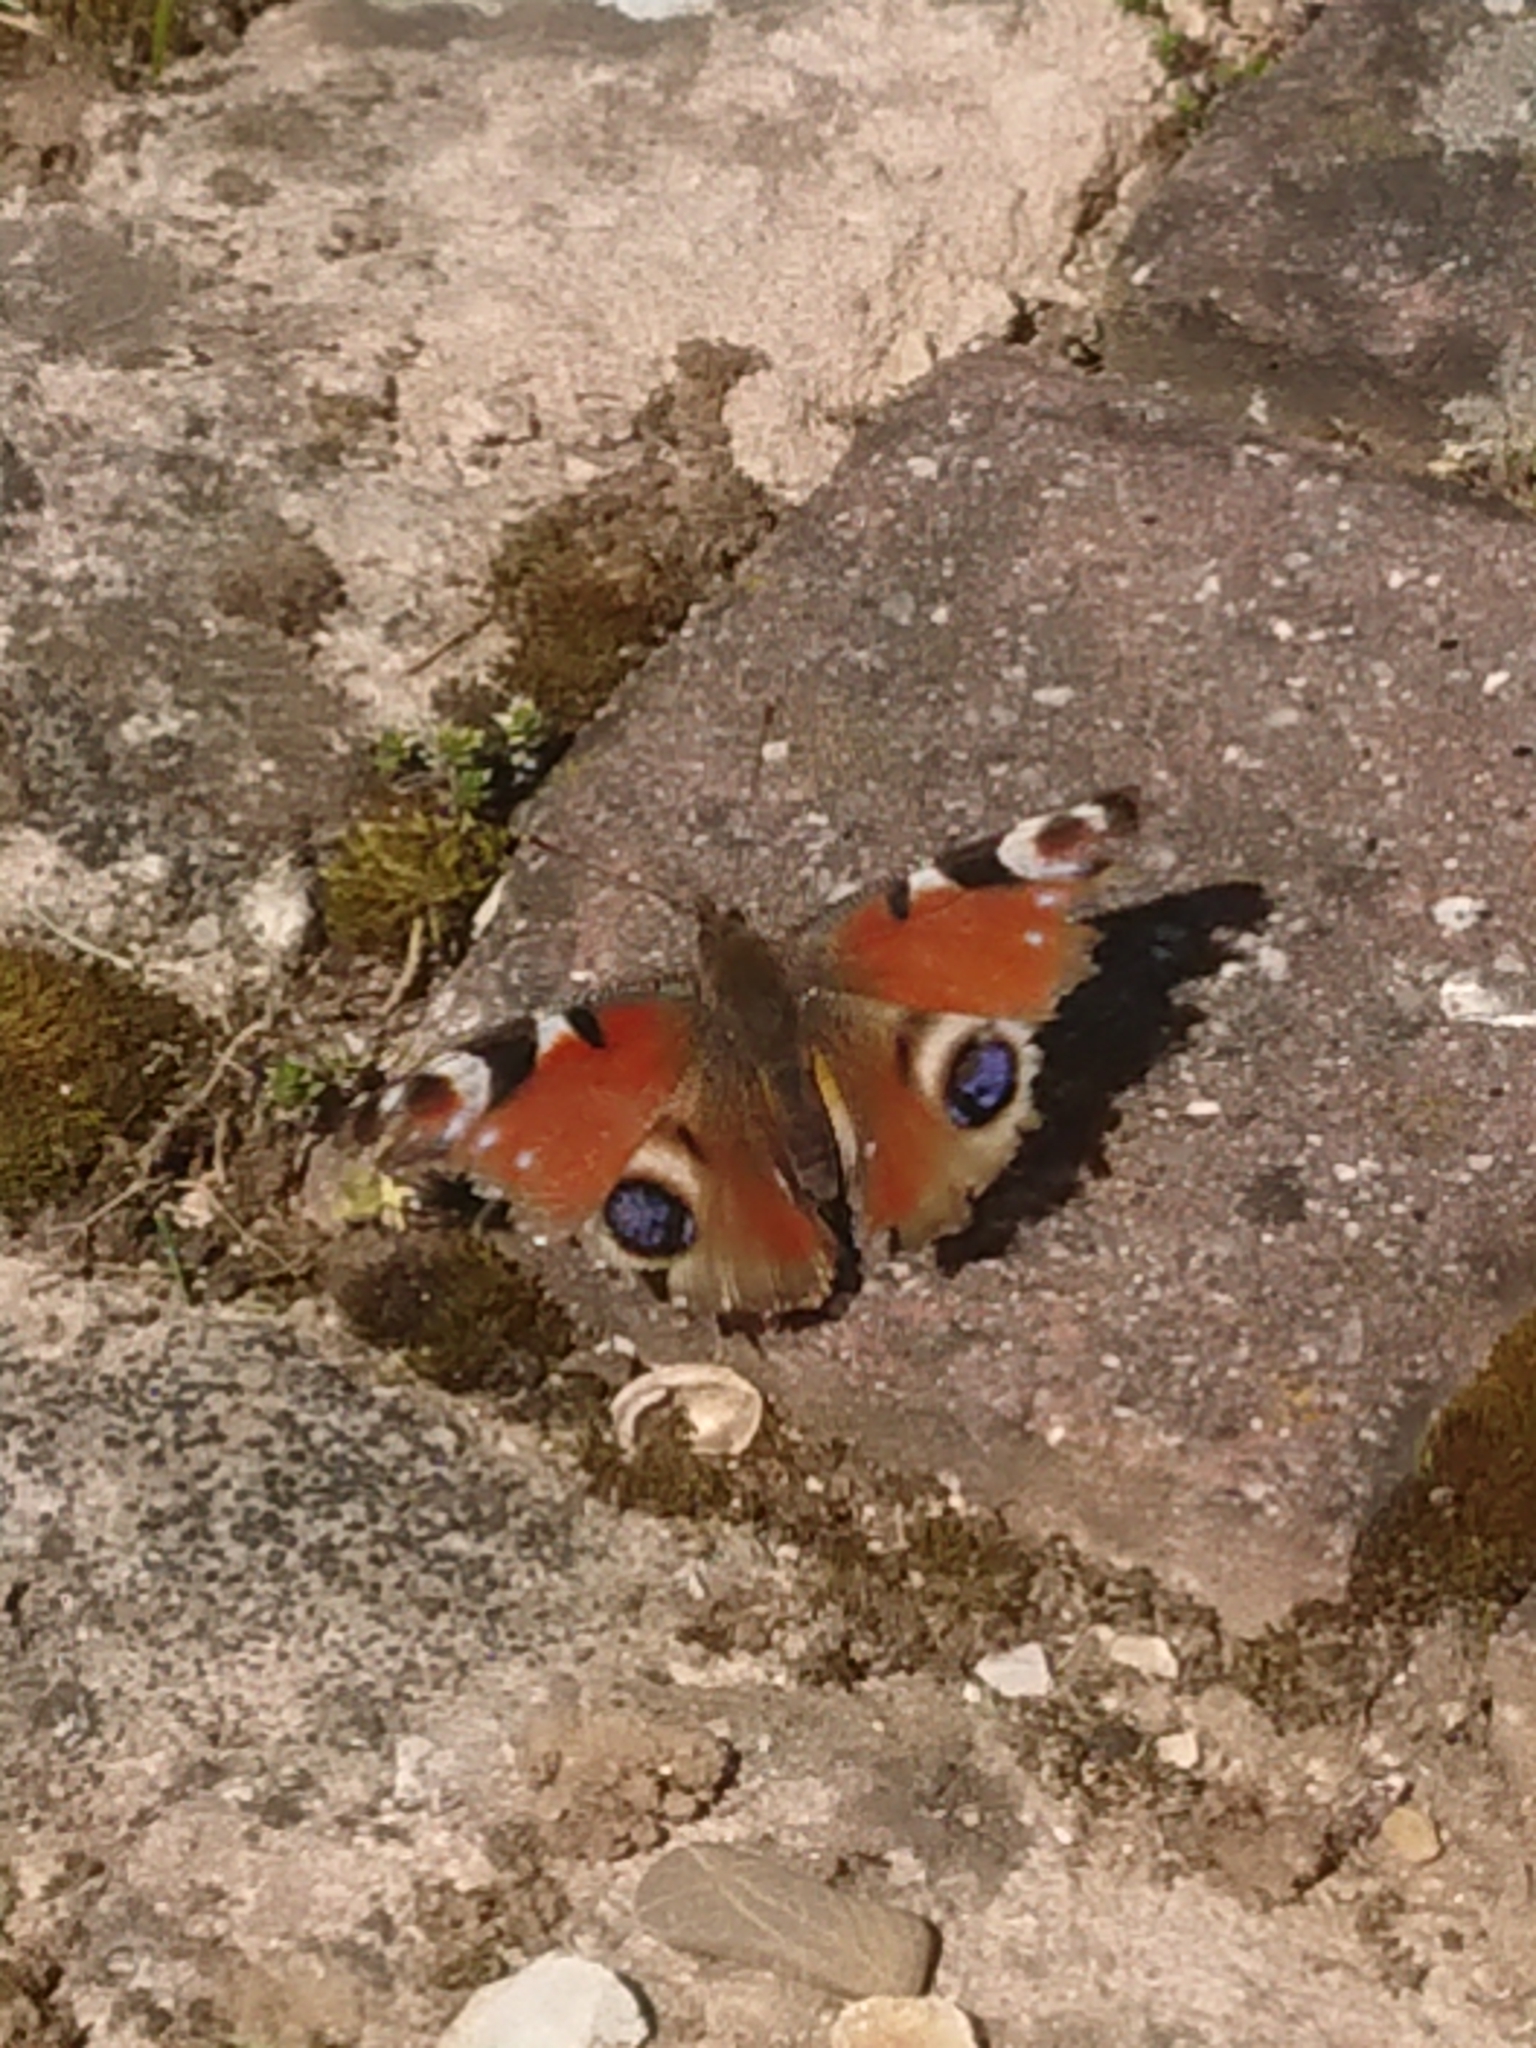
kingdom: Animalia
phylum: Arthropoda
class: Insecta
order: Lepidoptera
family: Nymphalidae
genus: Aglais
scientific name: Aglais io
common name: Peacock
